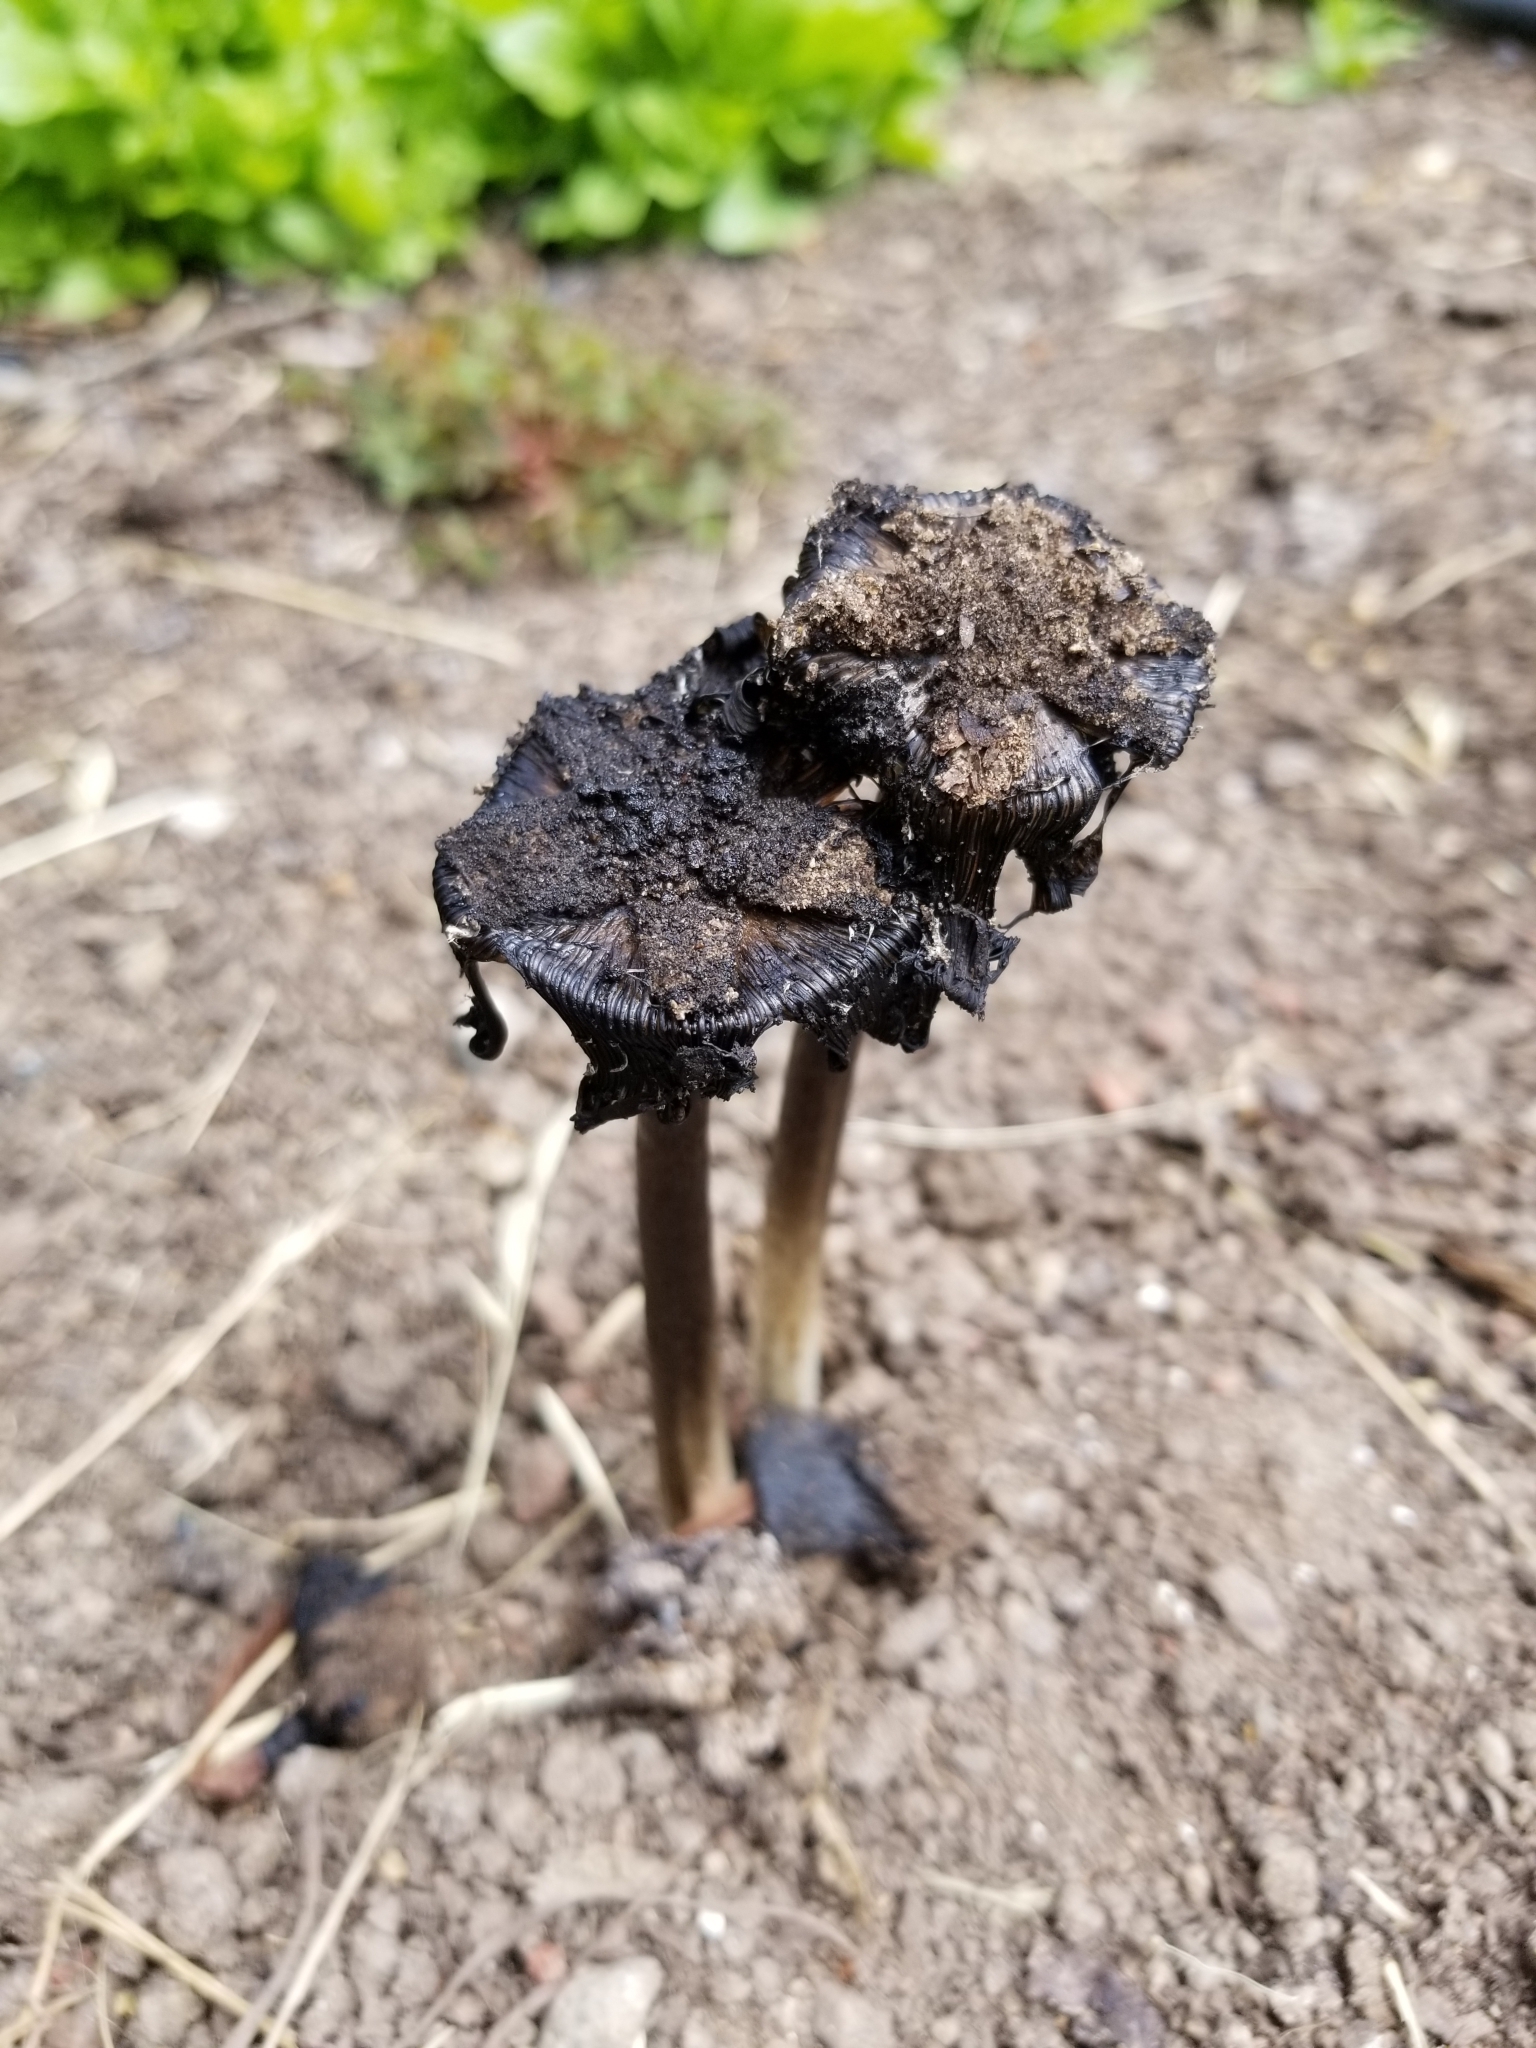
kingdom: Fungi
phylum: Basidiomycota
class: Agaricomycetes
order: Agaricales
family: Agaricaceae
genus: Coprinus
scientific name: Coprinus calyptratus
